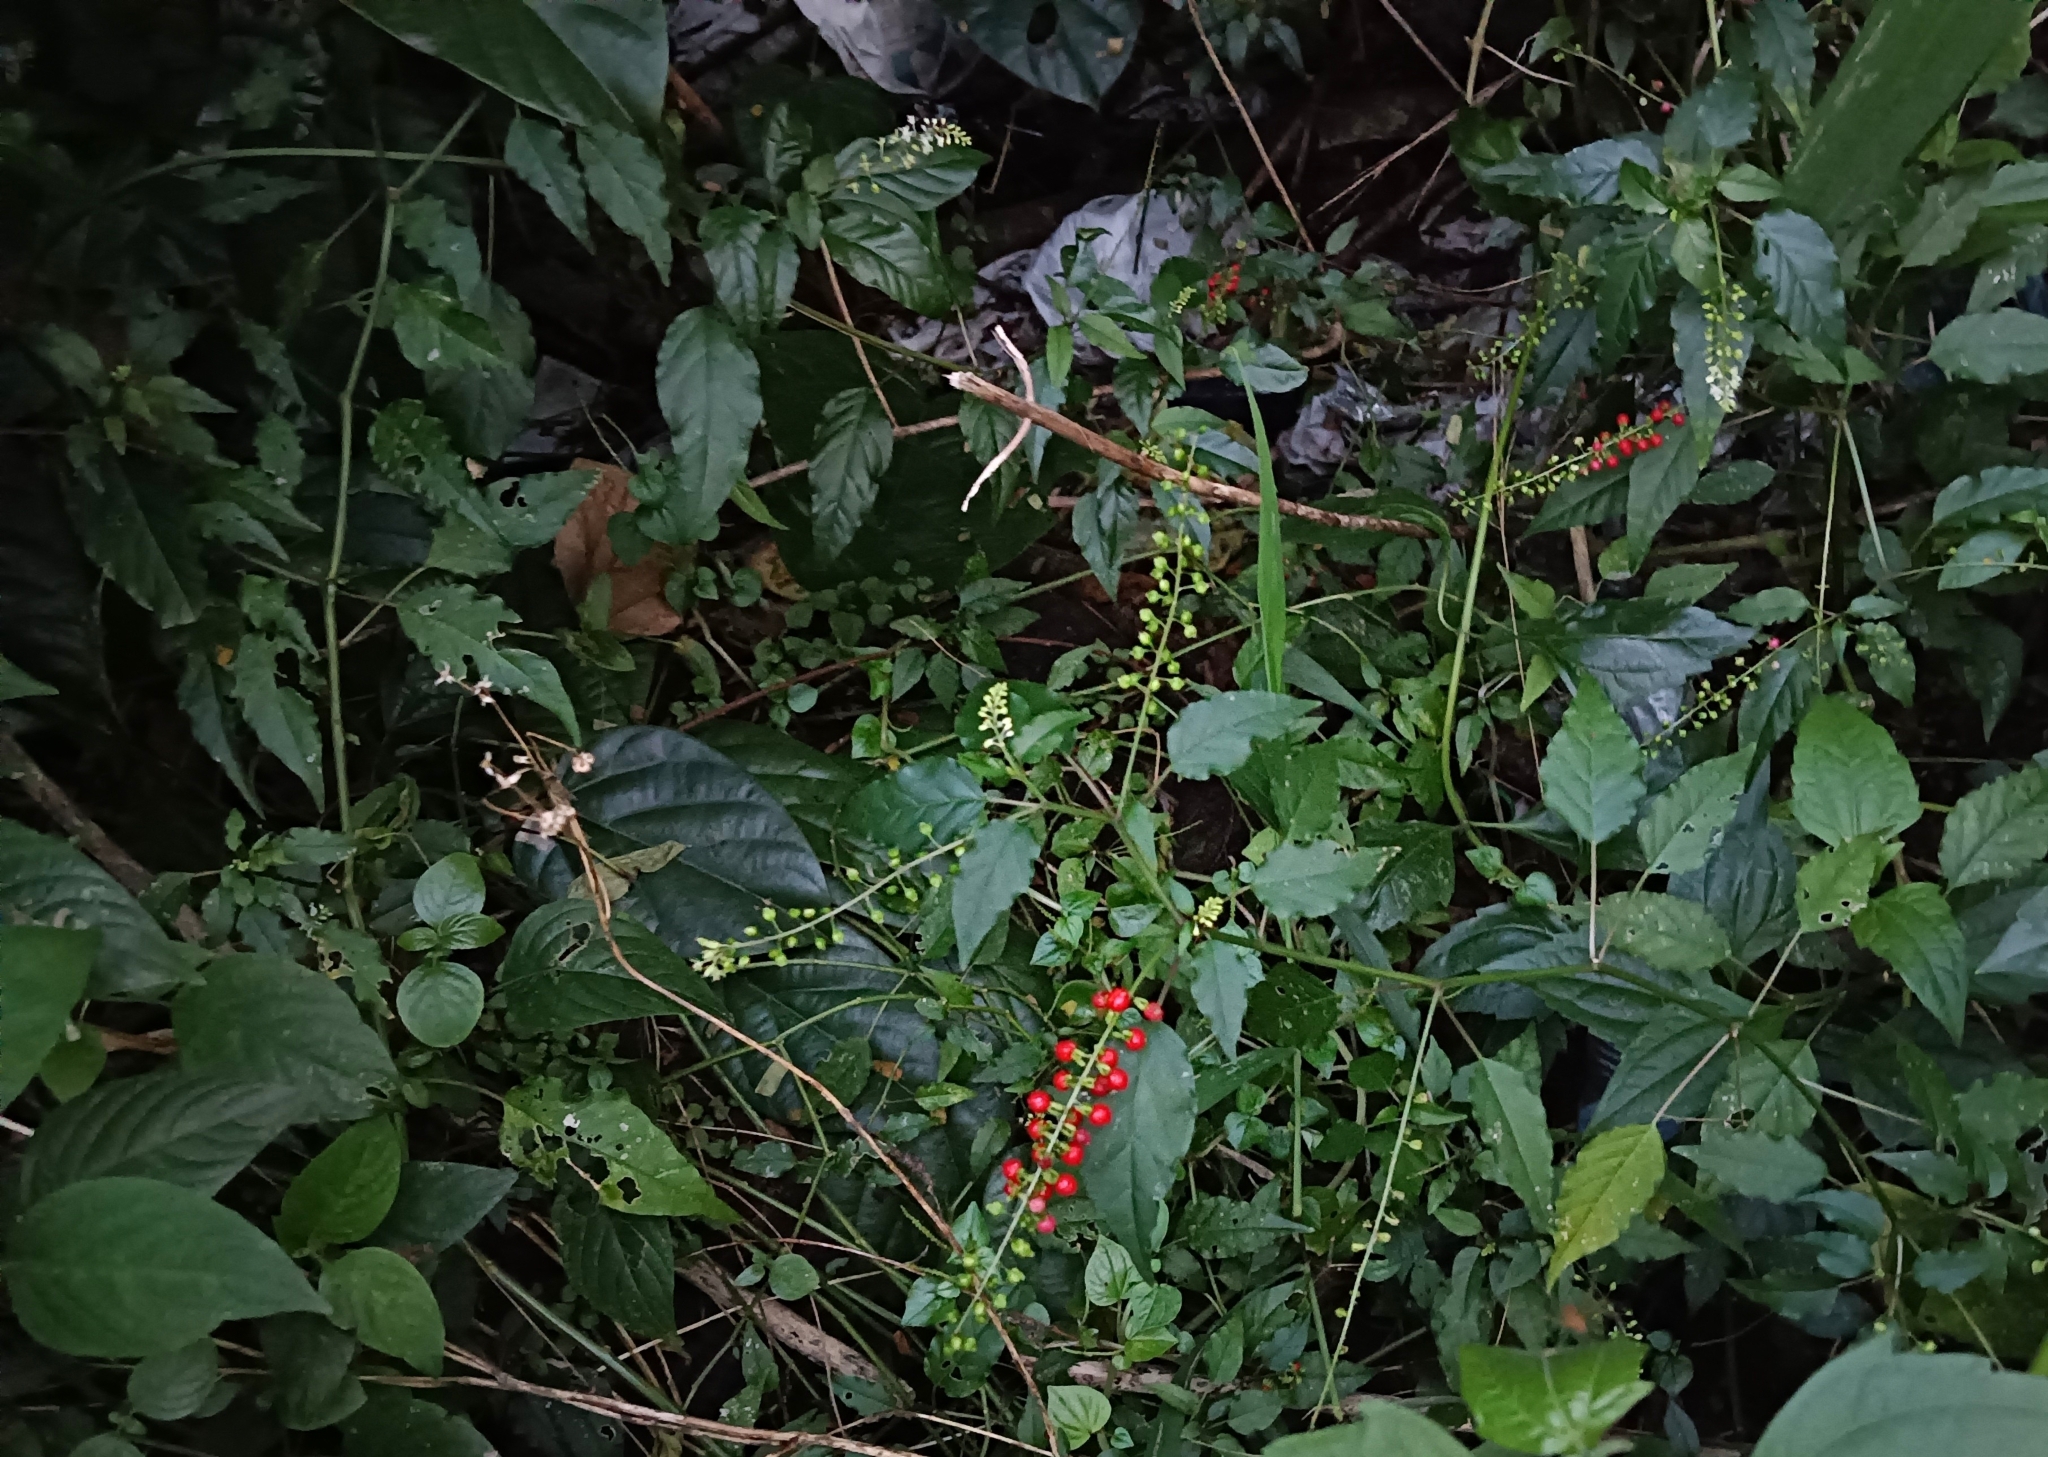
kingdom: Plantae
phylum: Tracheophyta
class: Magnoliopsida
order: Caryophyllales
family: Phytolaccaceae
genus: Rivina
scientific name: Rivina humilis
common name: Rougeplant
